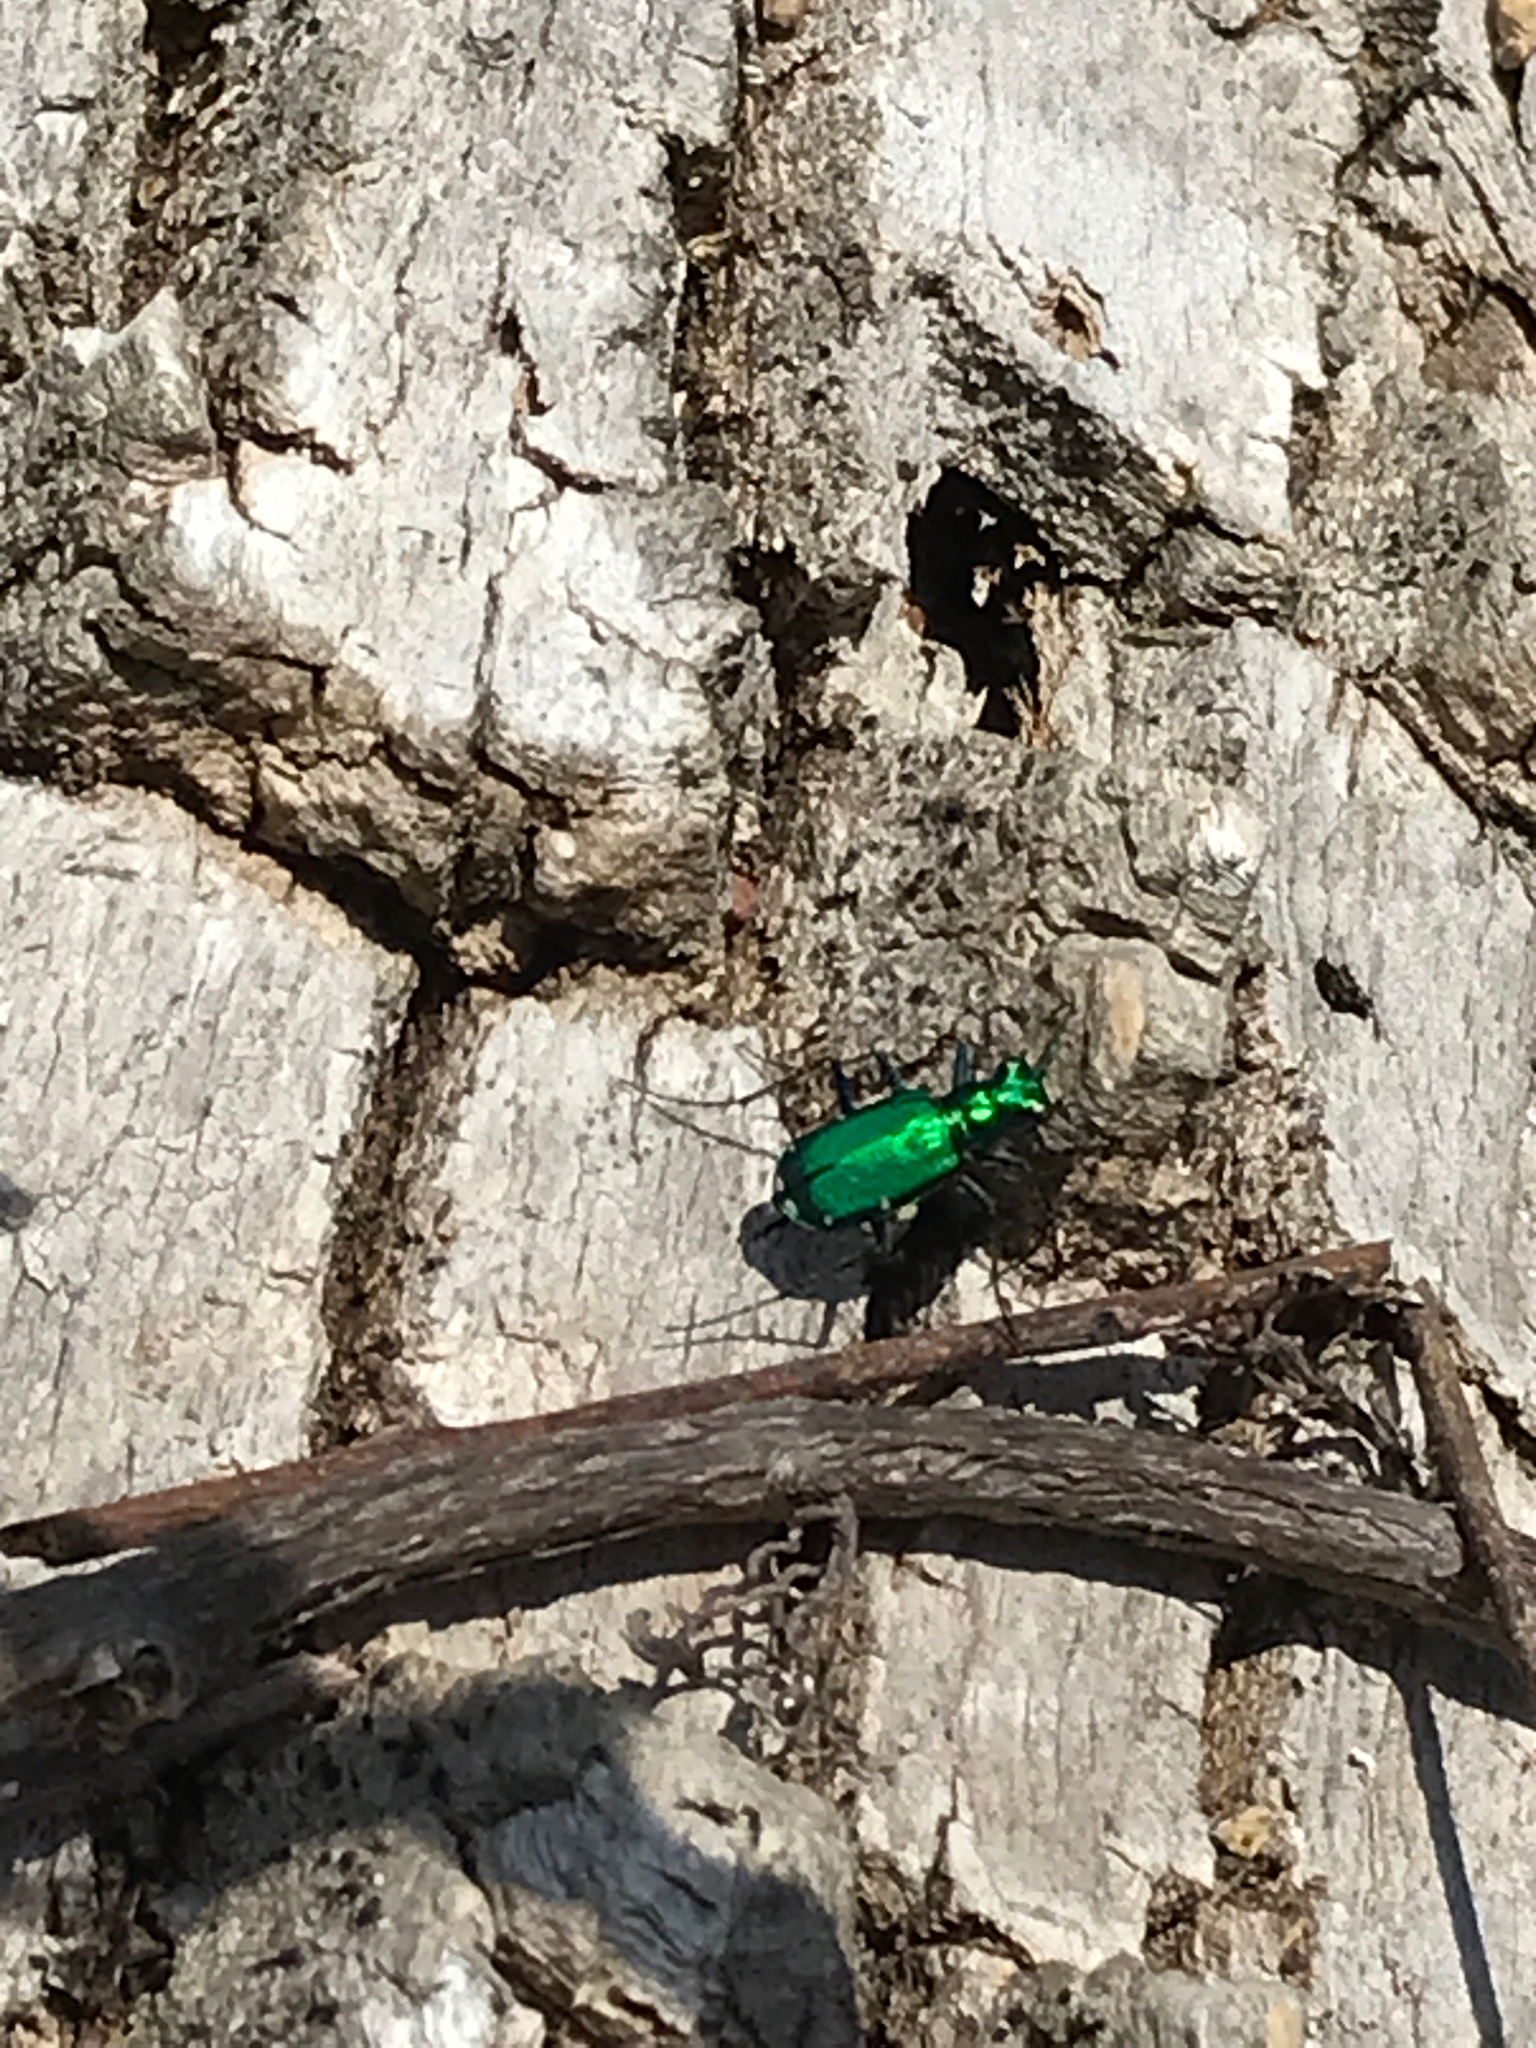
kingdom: Animalia
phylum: Arthropoda
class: Insecta
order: Coleoptera
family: Carabidae
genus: Cicindela
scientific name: Cicindela sexguttata
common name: Six-spotted tiger beetle
